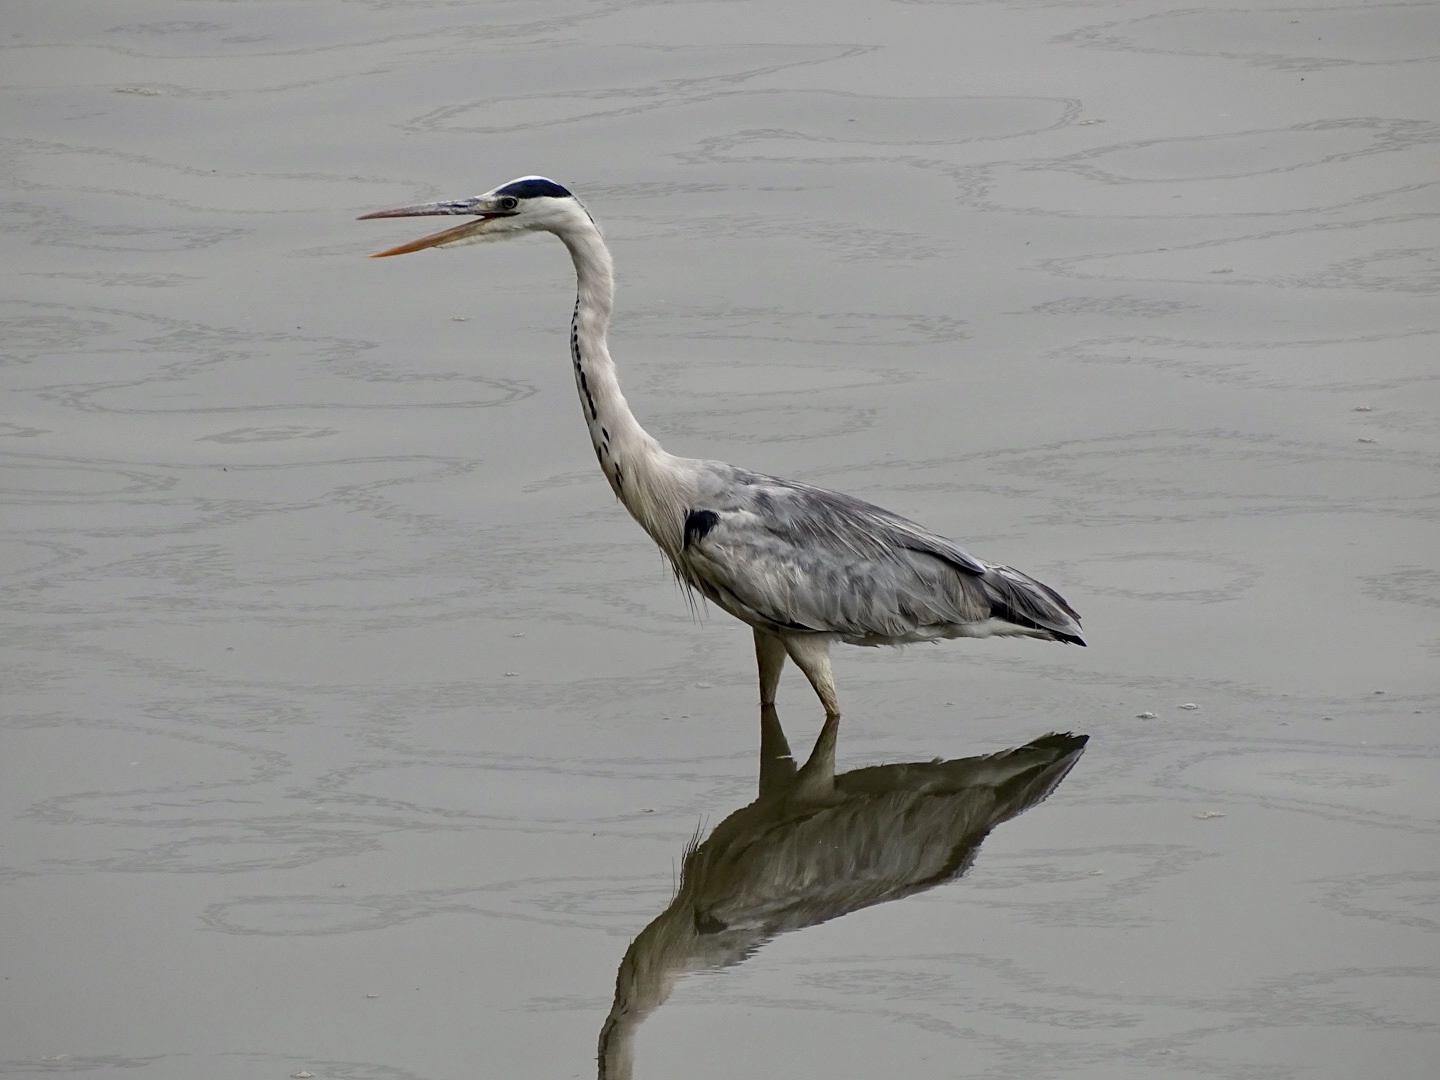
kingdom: Animalia
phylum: Chordata
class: Aves
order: Pelecaniformes
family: Ardeidae
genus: Ardea
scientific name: Ardea cinerea
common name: Grey heron
